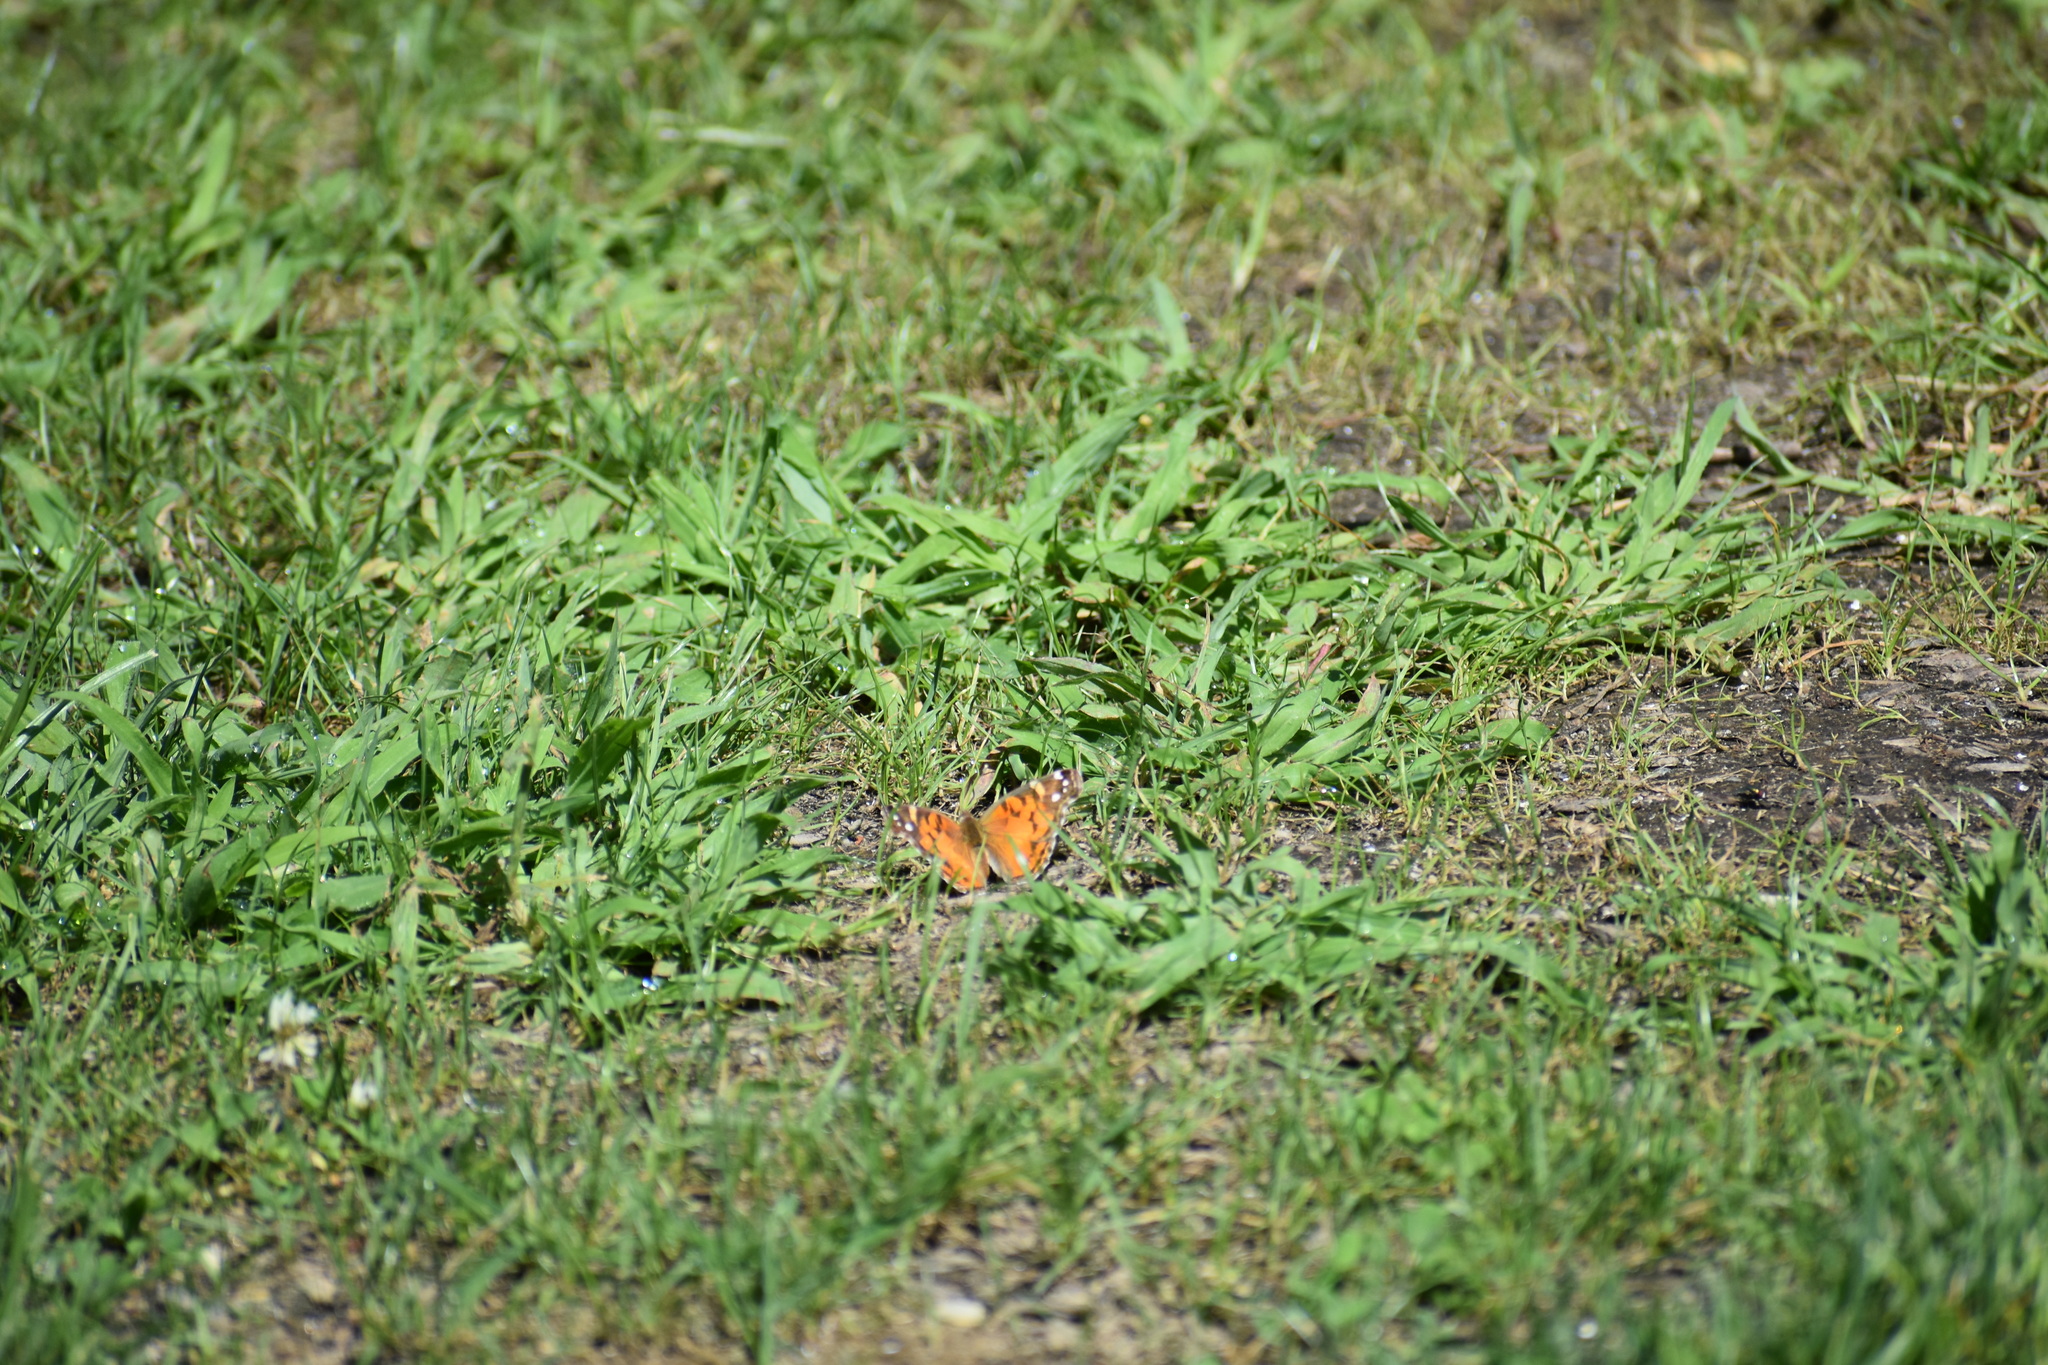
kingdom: Animalia
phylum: Arthropoda
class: Insecta
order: Lepidoptera
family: Nymphalidae
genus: Vanessa
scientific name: Vanessa virginiensis
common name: American lady
